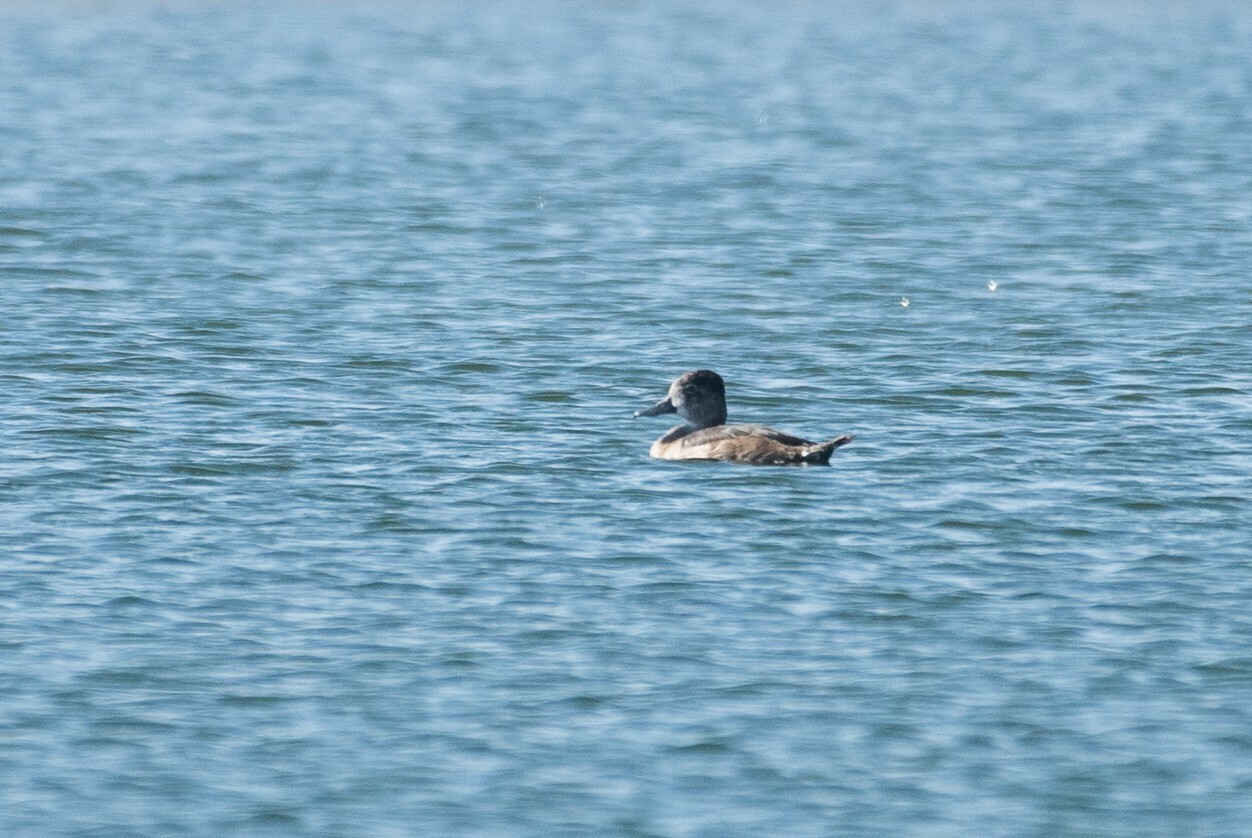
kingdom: Animalia
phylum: Chordata
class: Aves
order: Anseriformes
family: Anatidae
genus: Aythya
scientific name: Aythya collaris
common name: Ring-necked duck
